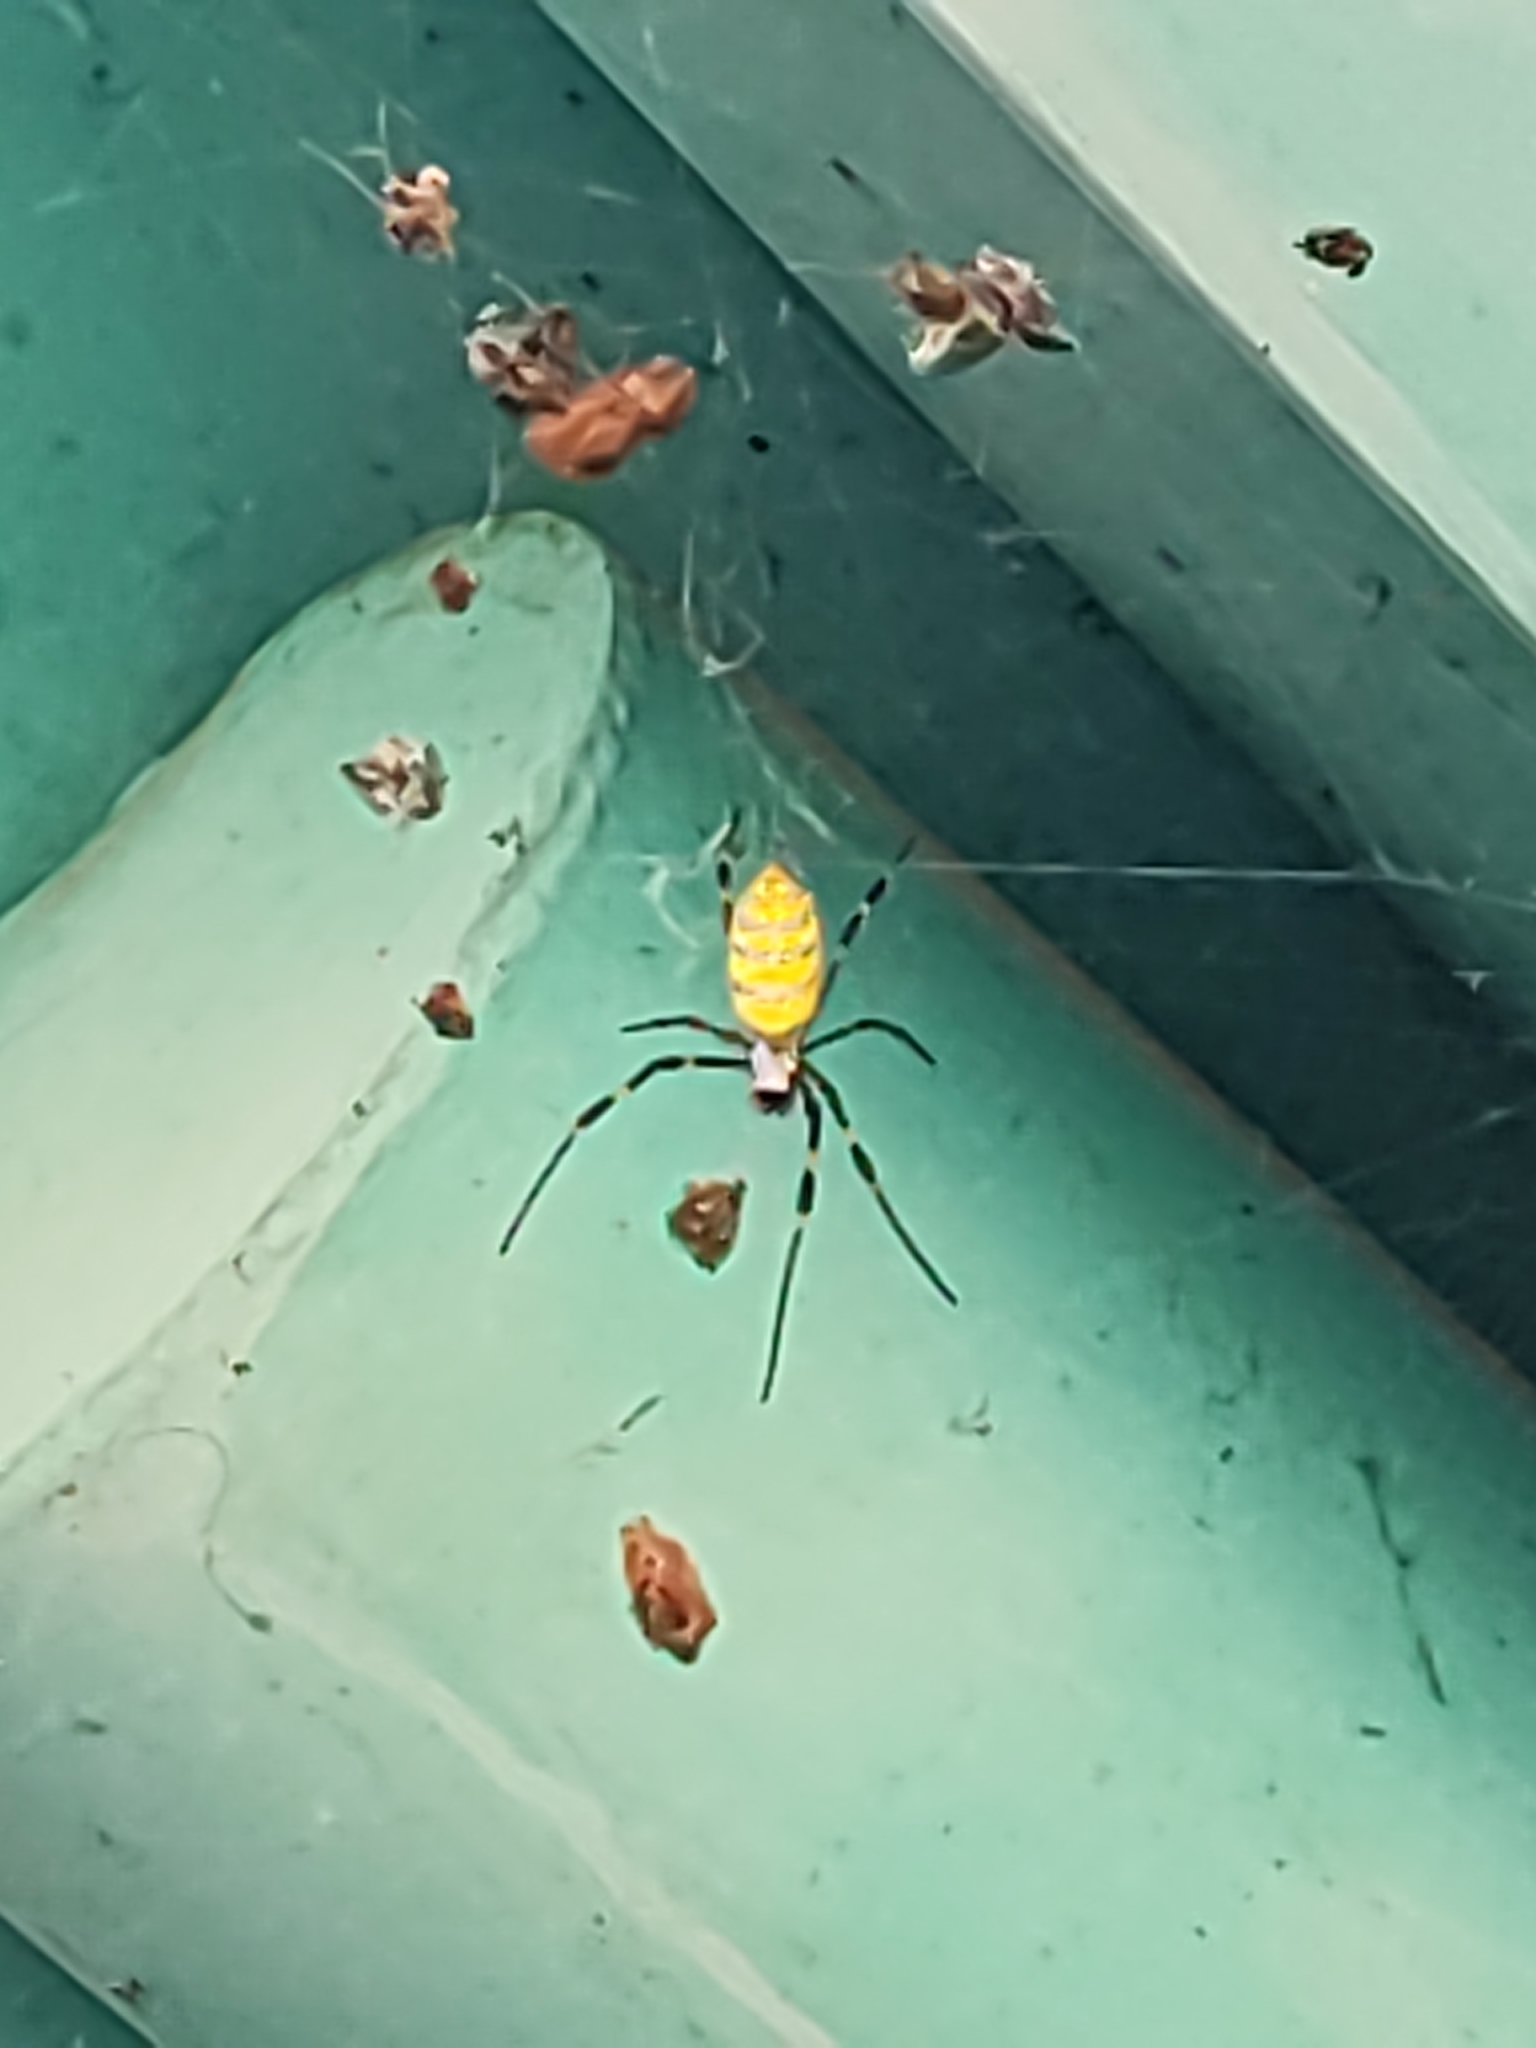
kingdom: Animalia
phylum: Arthropoda
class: Arachnida
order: Araneae
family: Araneidae
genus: Trichonephila
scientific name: Trichonephila clavata
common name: Jorō spider
